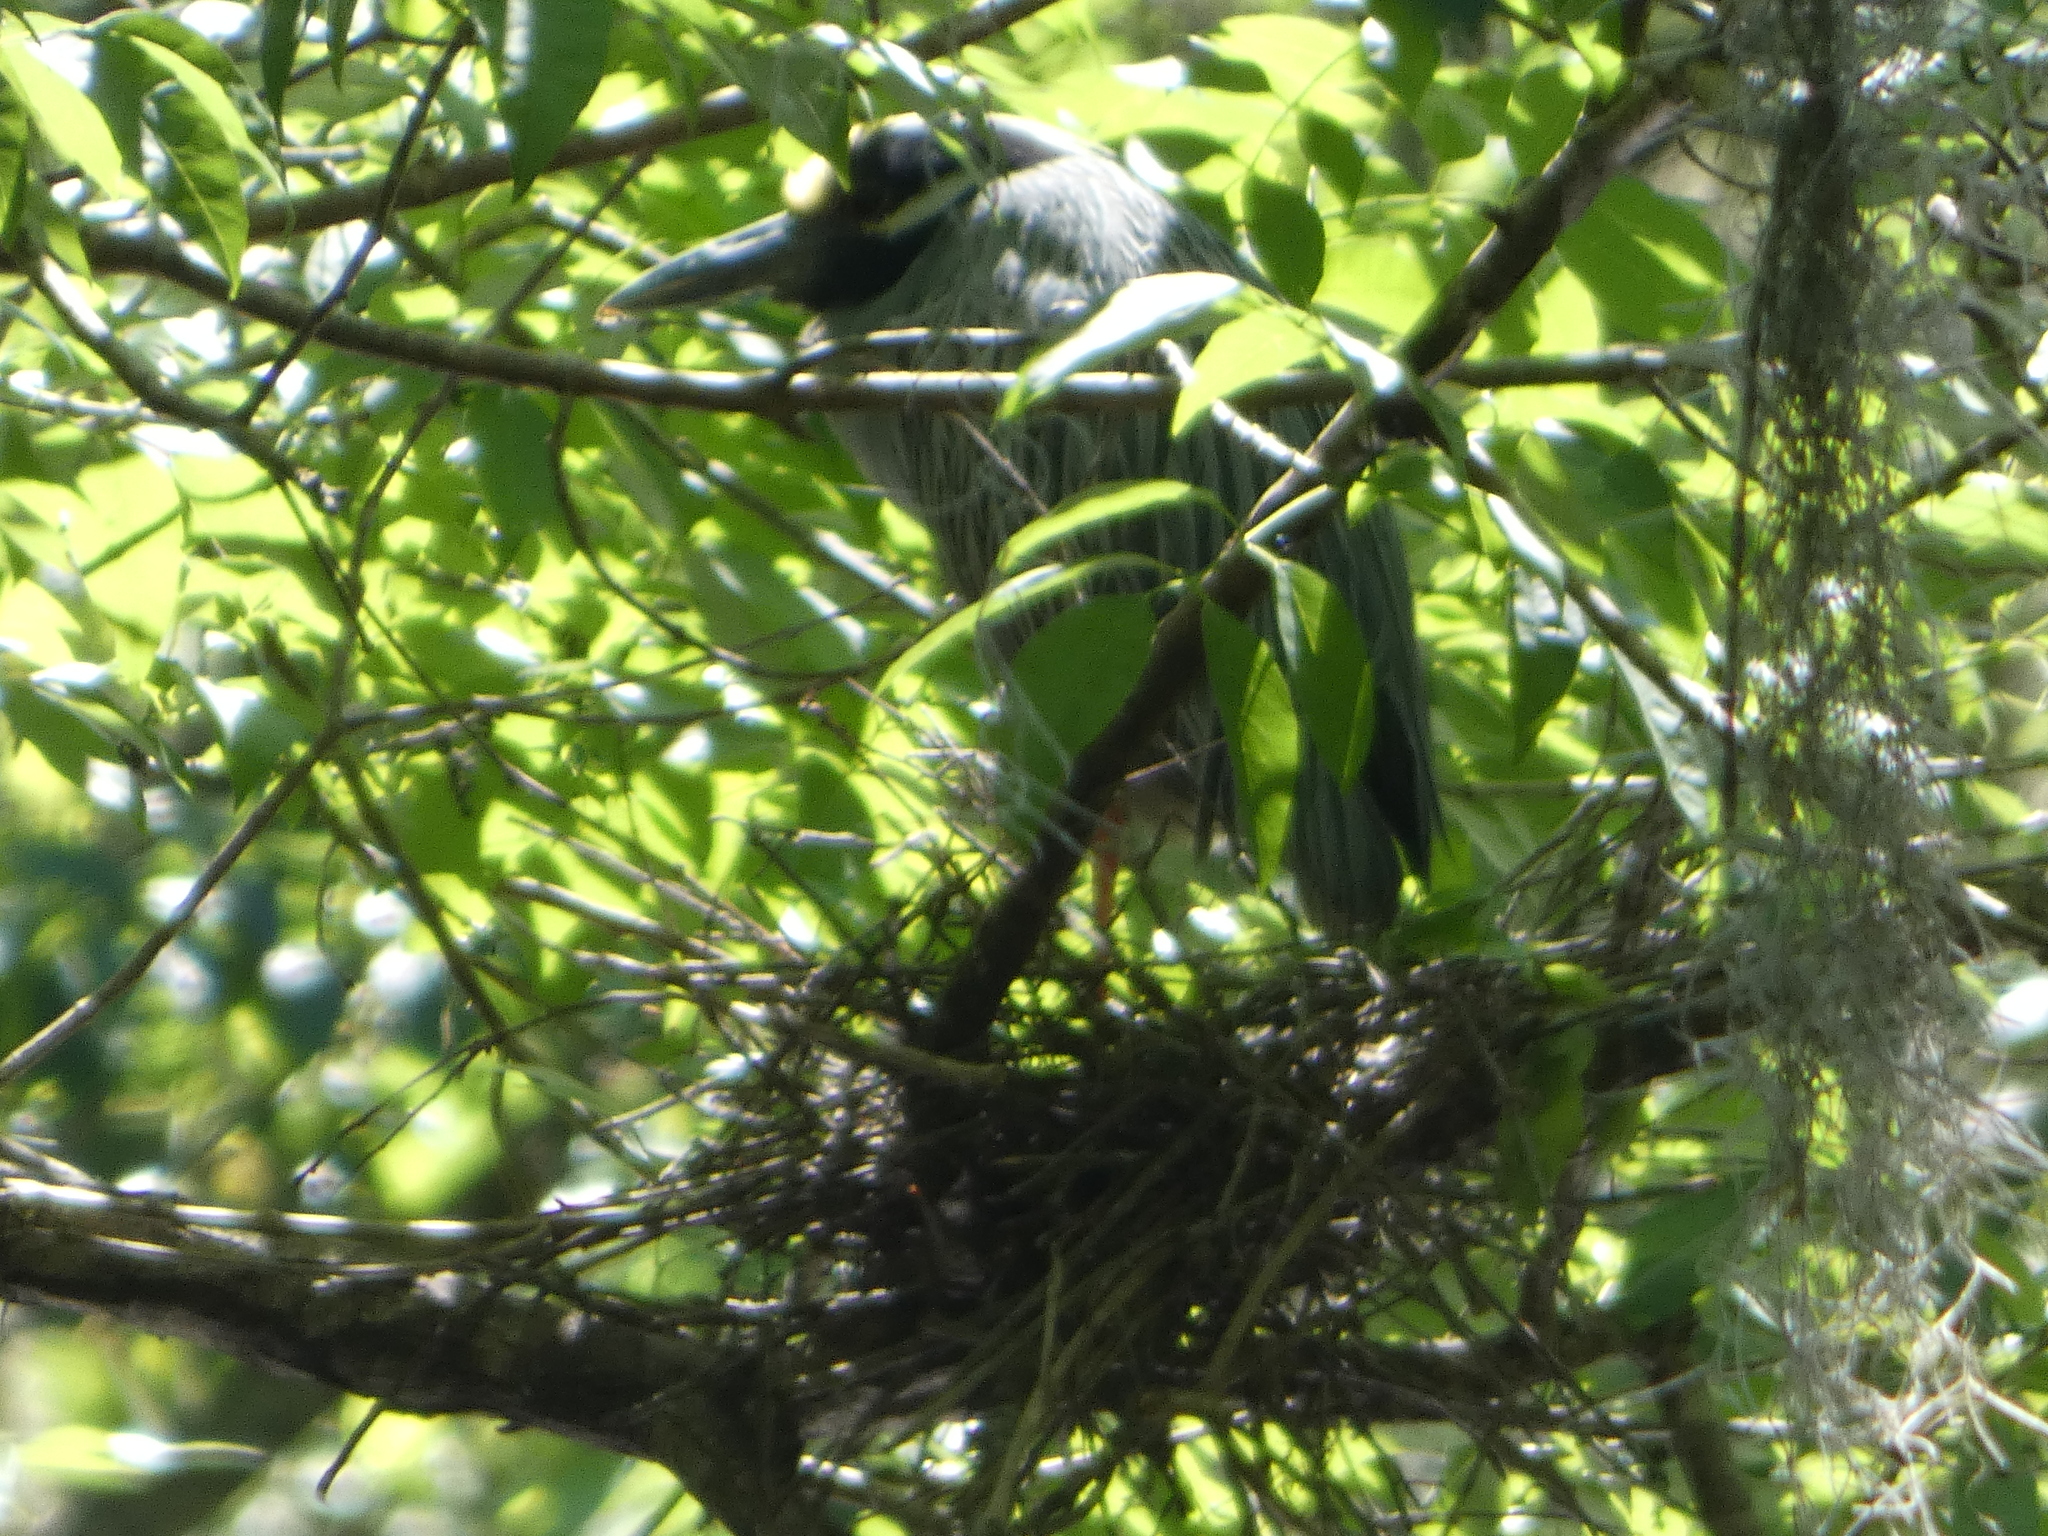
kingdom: Animalia
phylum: Chordata
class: Aves
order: Pelecaniformes
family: Ardeidae
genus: Nyctanassa
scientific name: Nyctanassa violacea
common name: Yellow-crowned night heron
